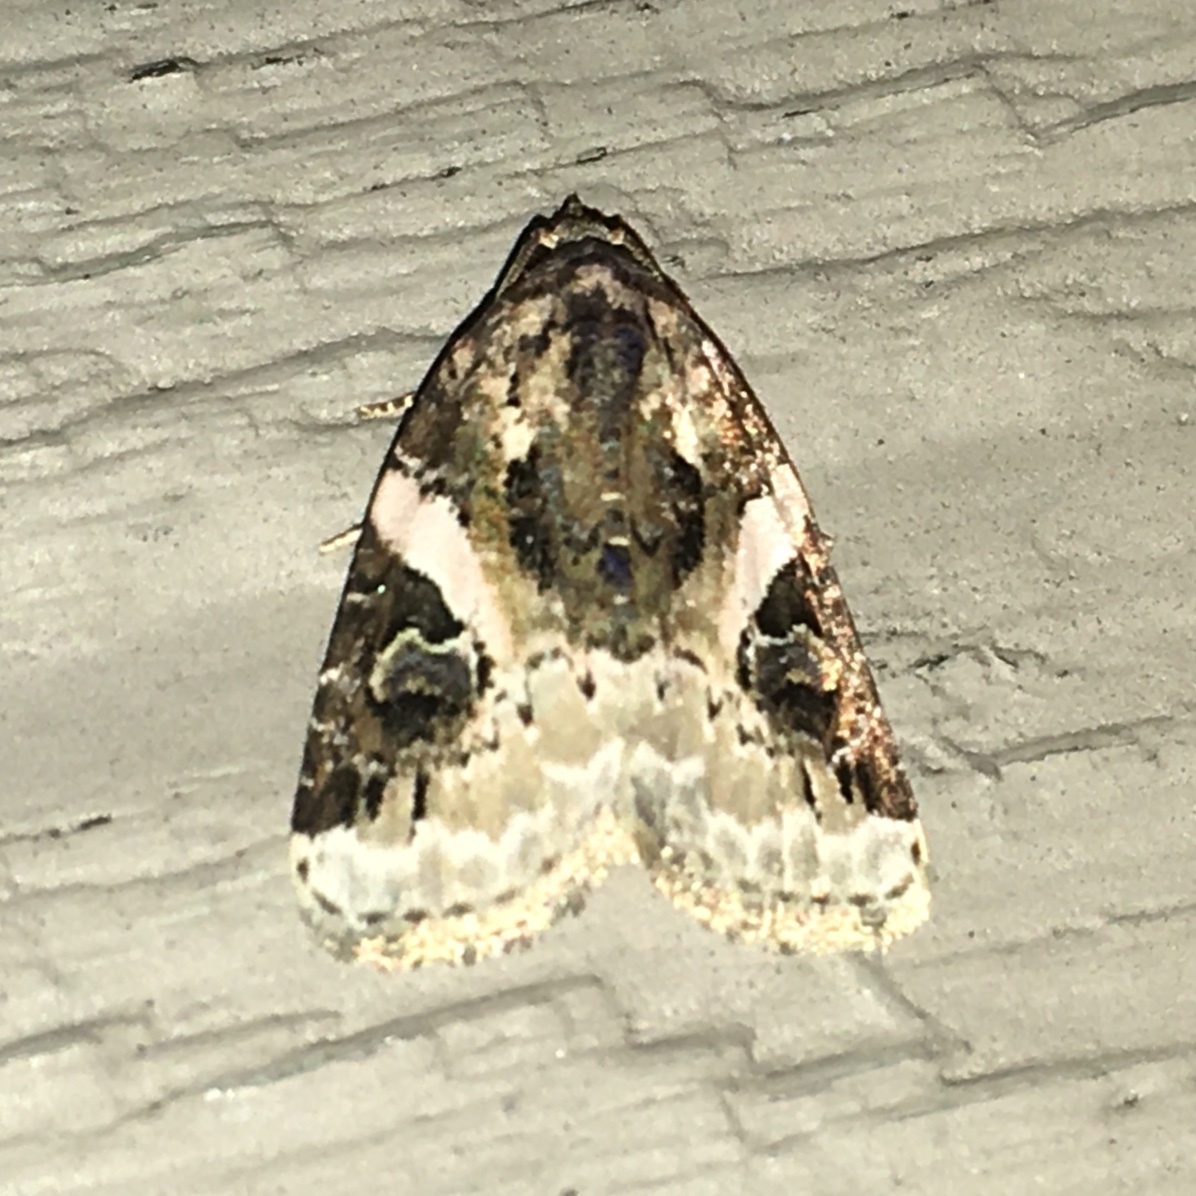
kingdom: Animalia
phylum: Arthropoda
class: Insecta
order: Lepidoptera
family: Noctuidae
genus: Pseudeustrotia
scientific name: Pseudeustrotia carneola
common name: Pink-barred lithacodia moth
